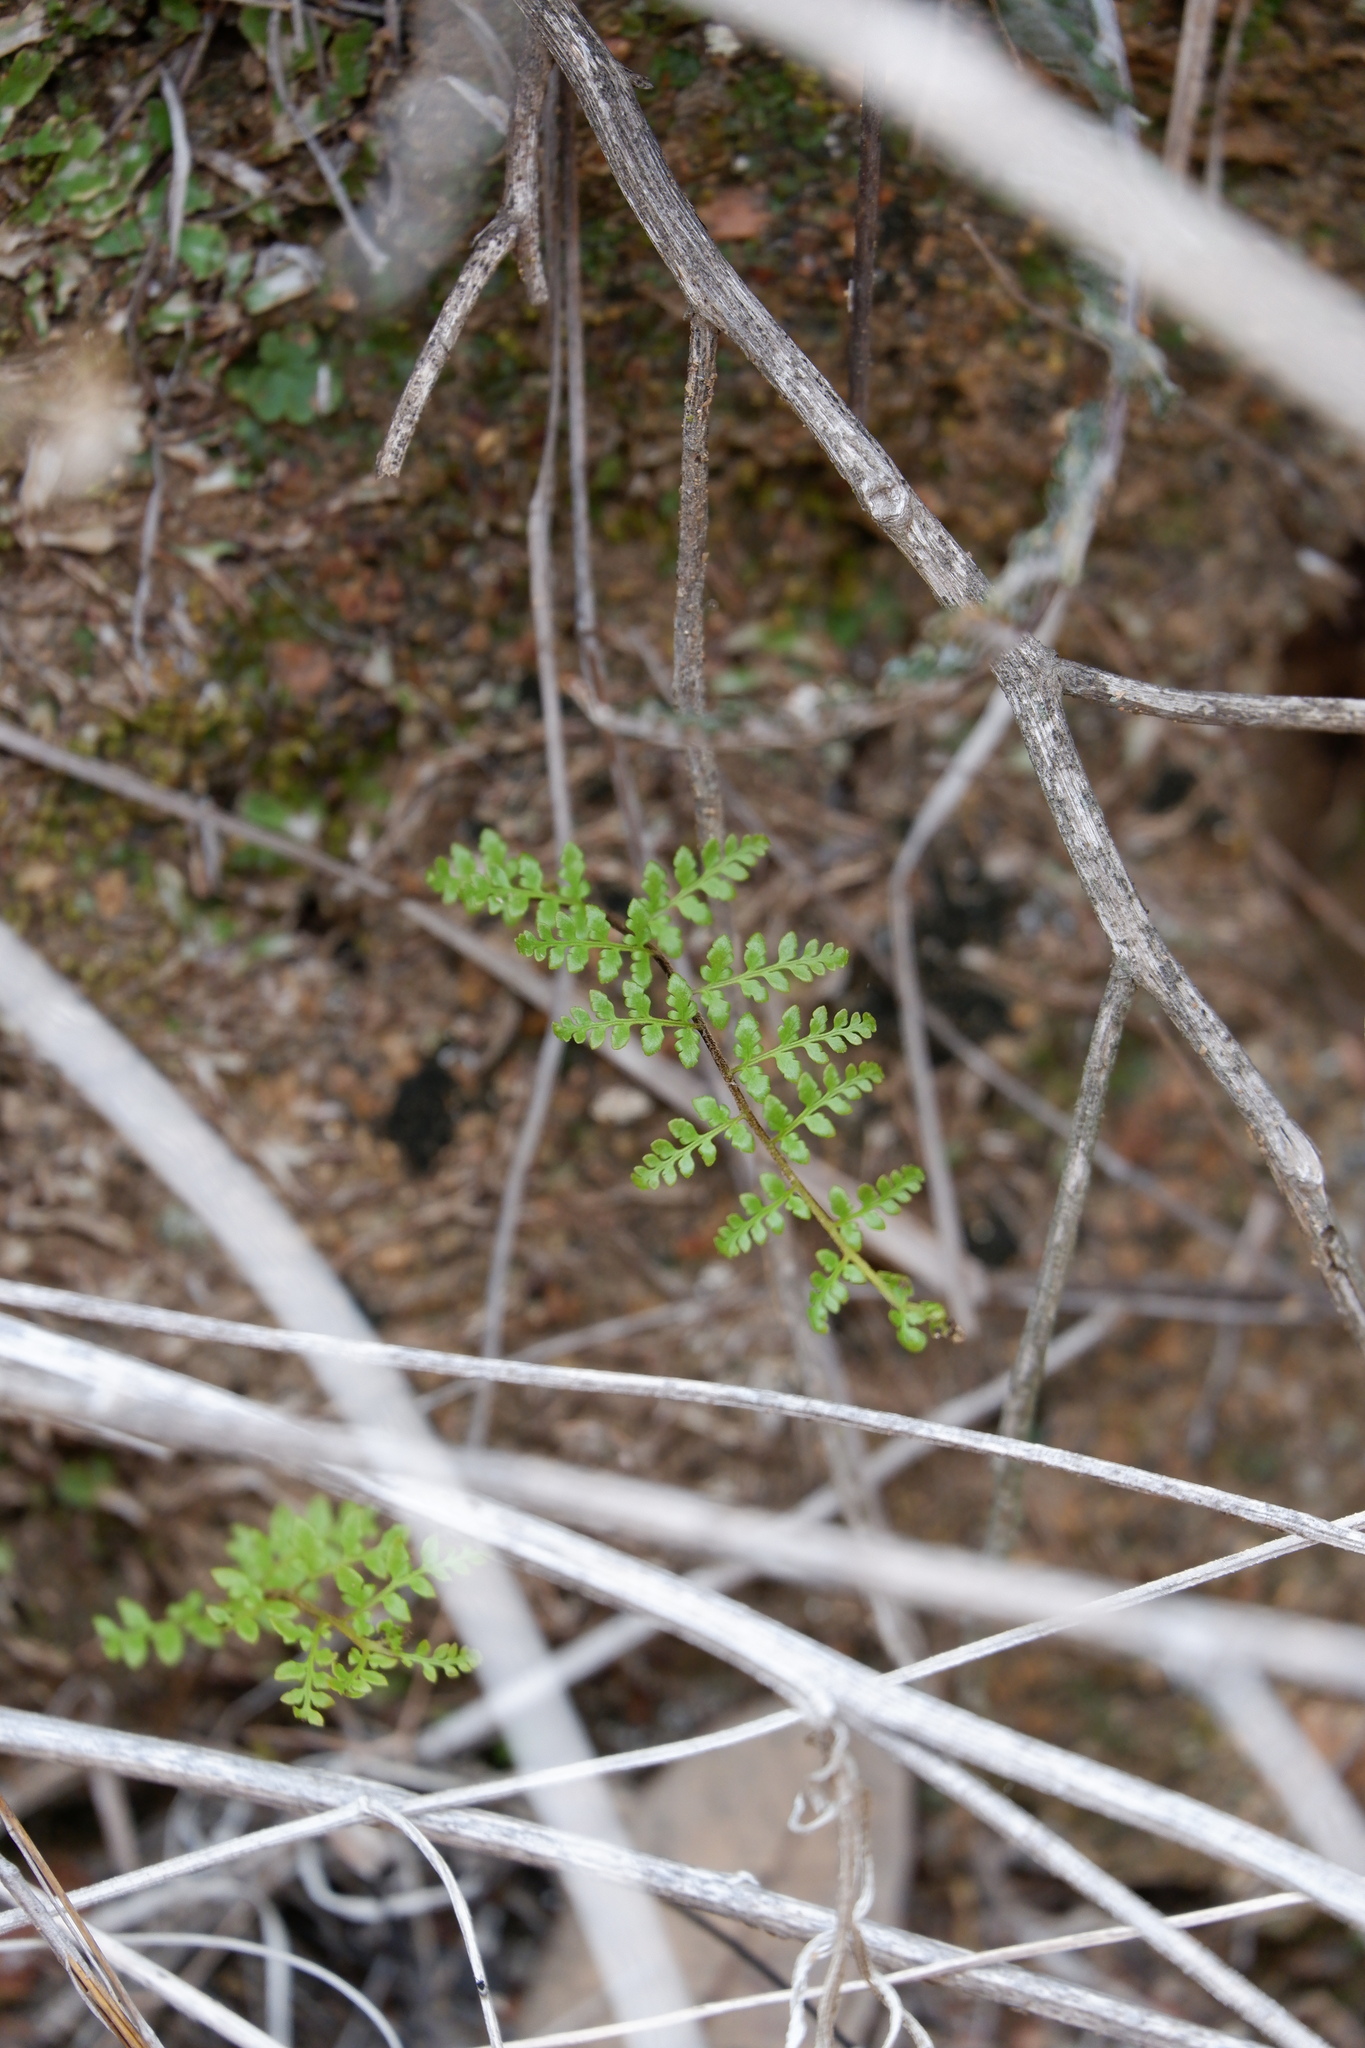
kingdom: Plantae
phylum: Tracheophyta
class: Polypodiopsida
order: Polypodiales
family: Pteridaceae
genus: Myriopteris
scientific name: Myriopteris alabamensis
